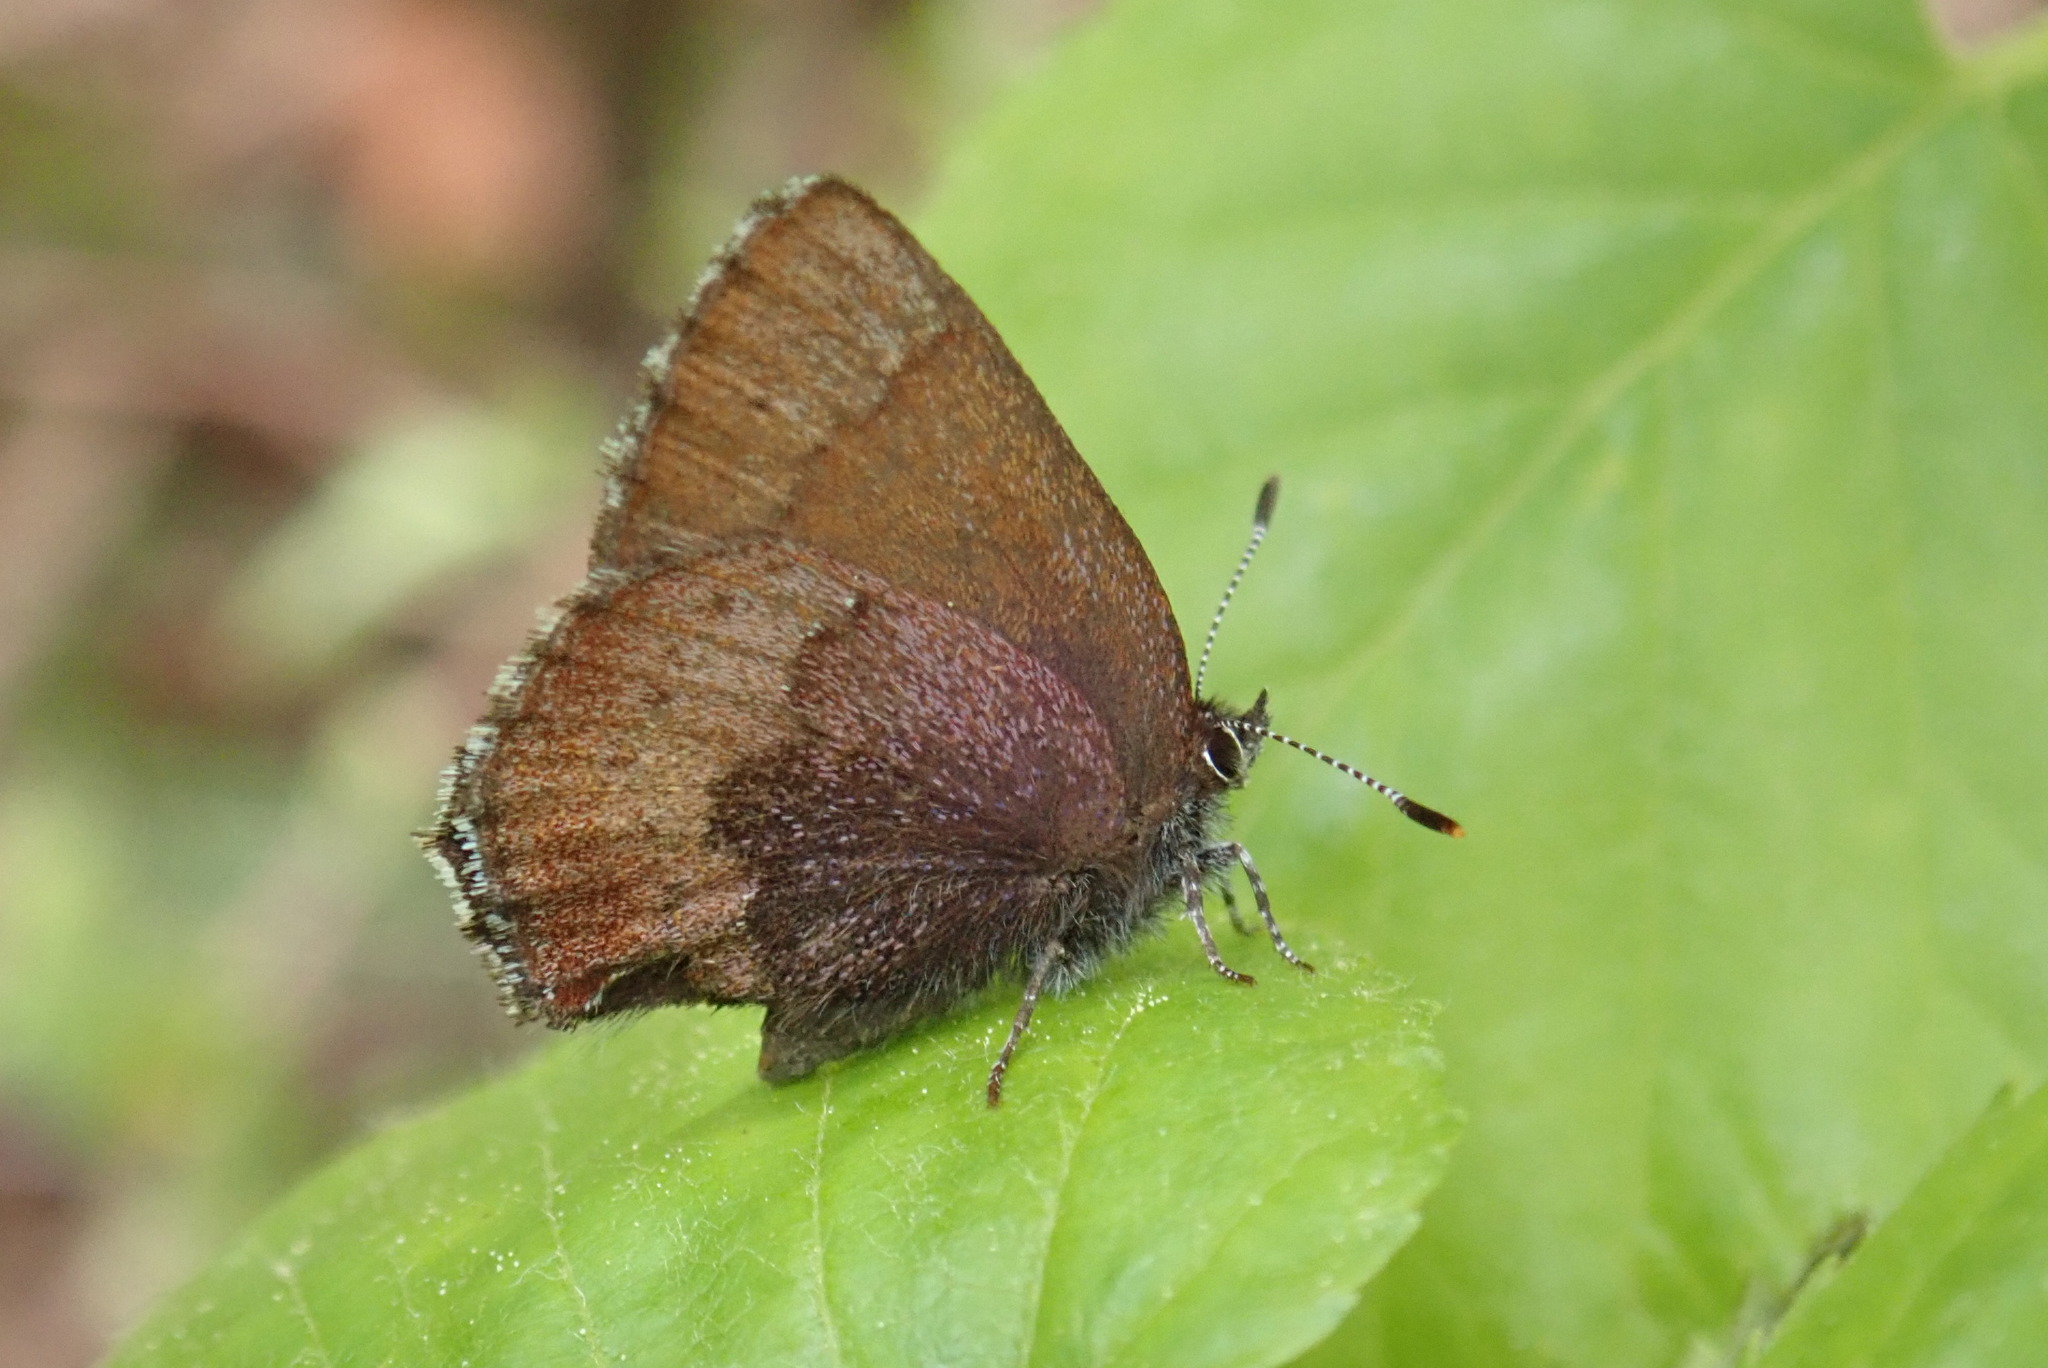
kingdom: Animalia
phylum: Arthropoda
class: Insecta
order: Lepidoptera
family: Lycaenidae
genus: Incisalia
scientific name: Incisalia irioides
